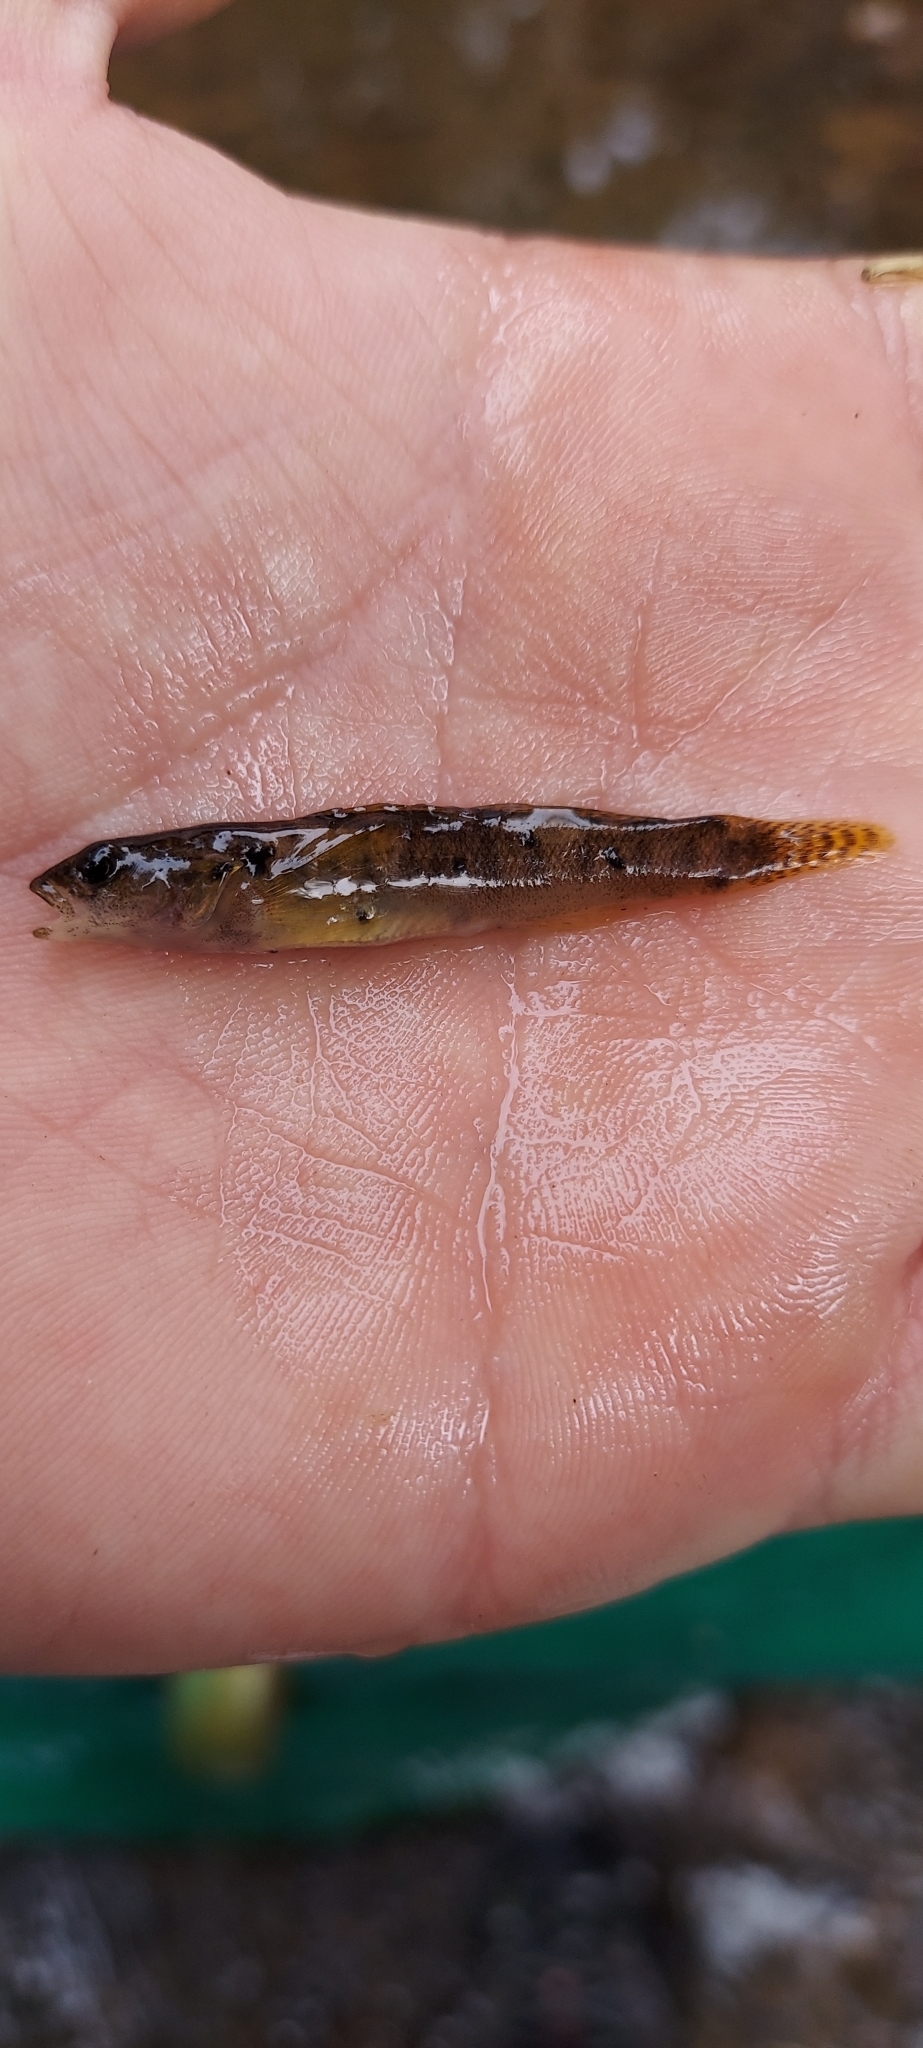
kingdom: Animalia
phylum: Chordata
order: Perciformes
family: Percidae
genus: Etheostoma
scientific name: Etheostoma flabellare
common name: Fantail darter
